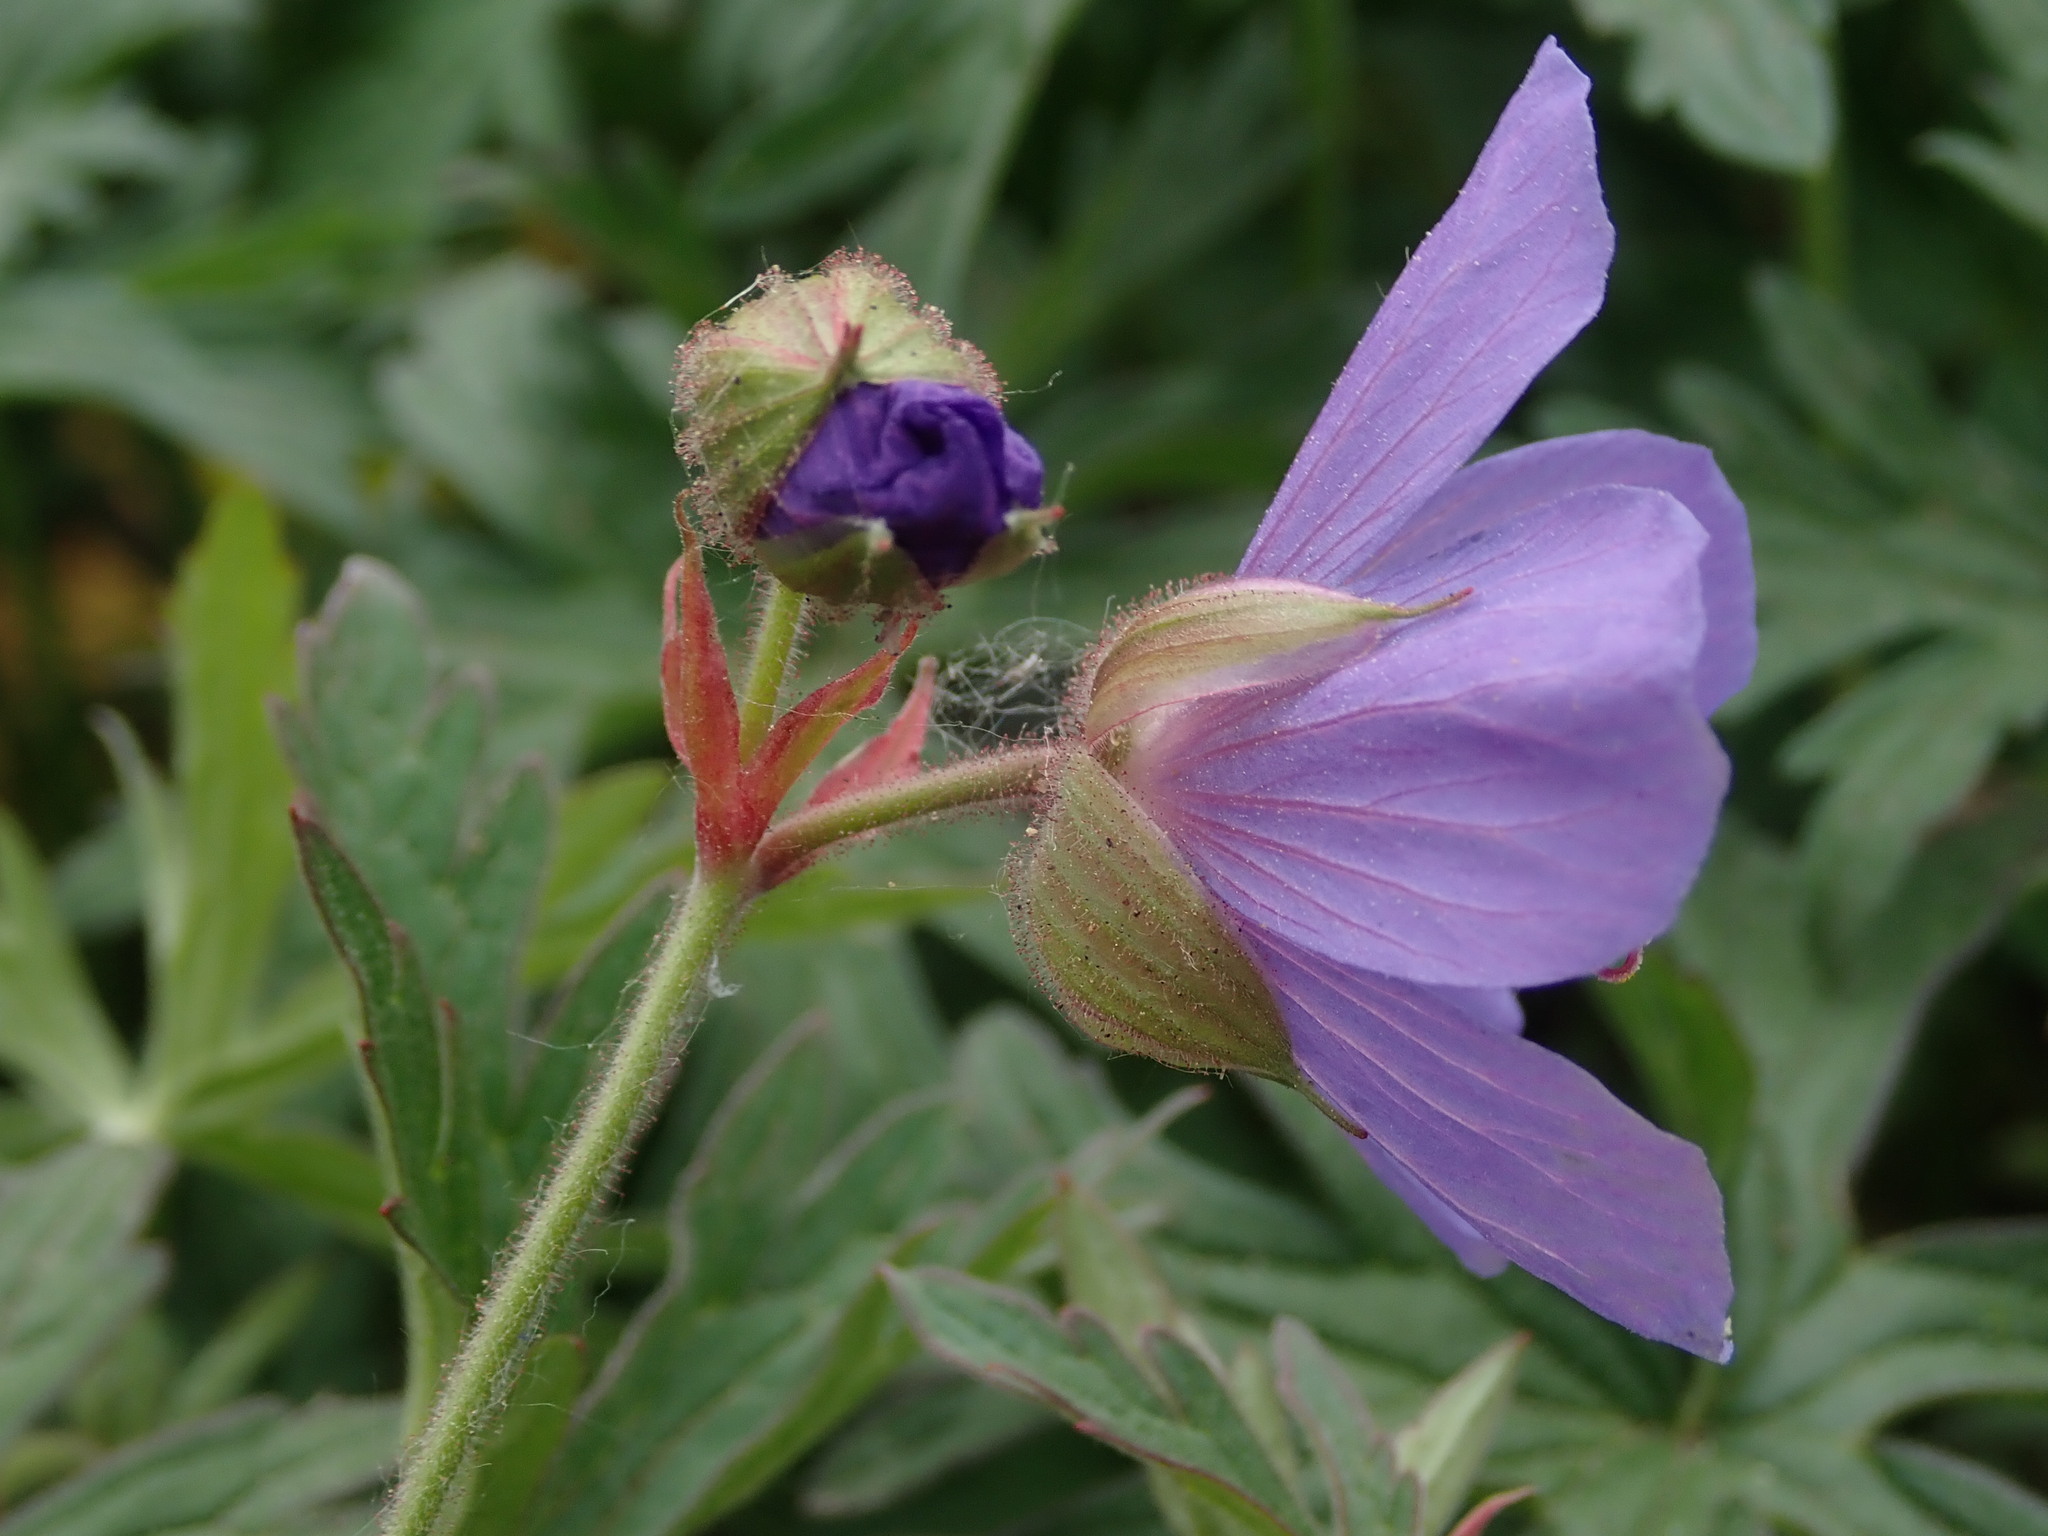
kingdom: Plantae
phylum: Tracheophyta
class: Magnoliopsida
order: Geraniales
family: Geraniaceae
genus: Geranium
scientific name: Geranium pratense
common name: Meadow crane's-bill
